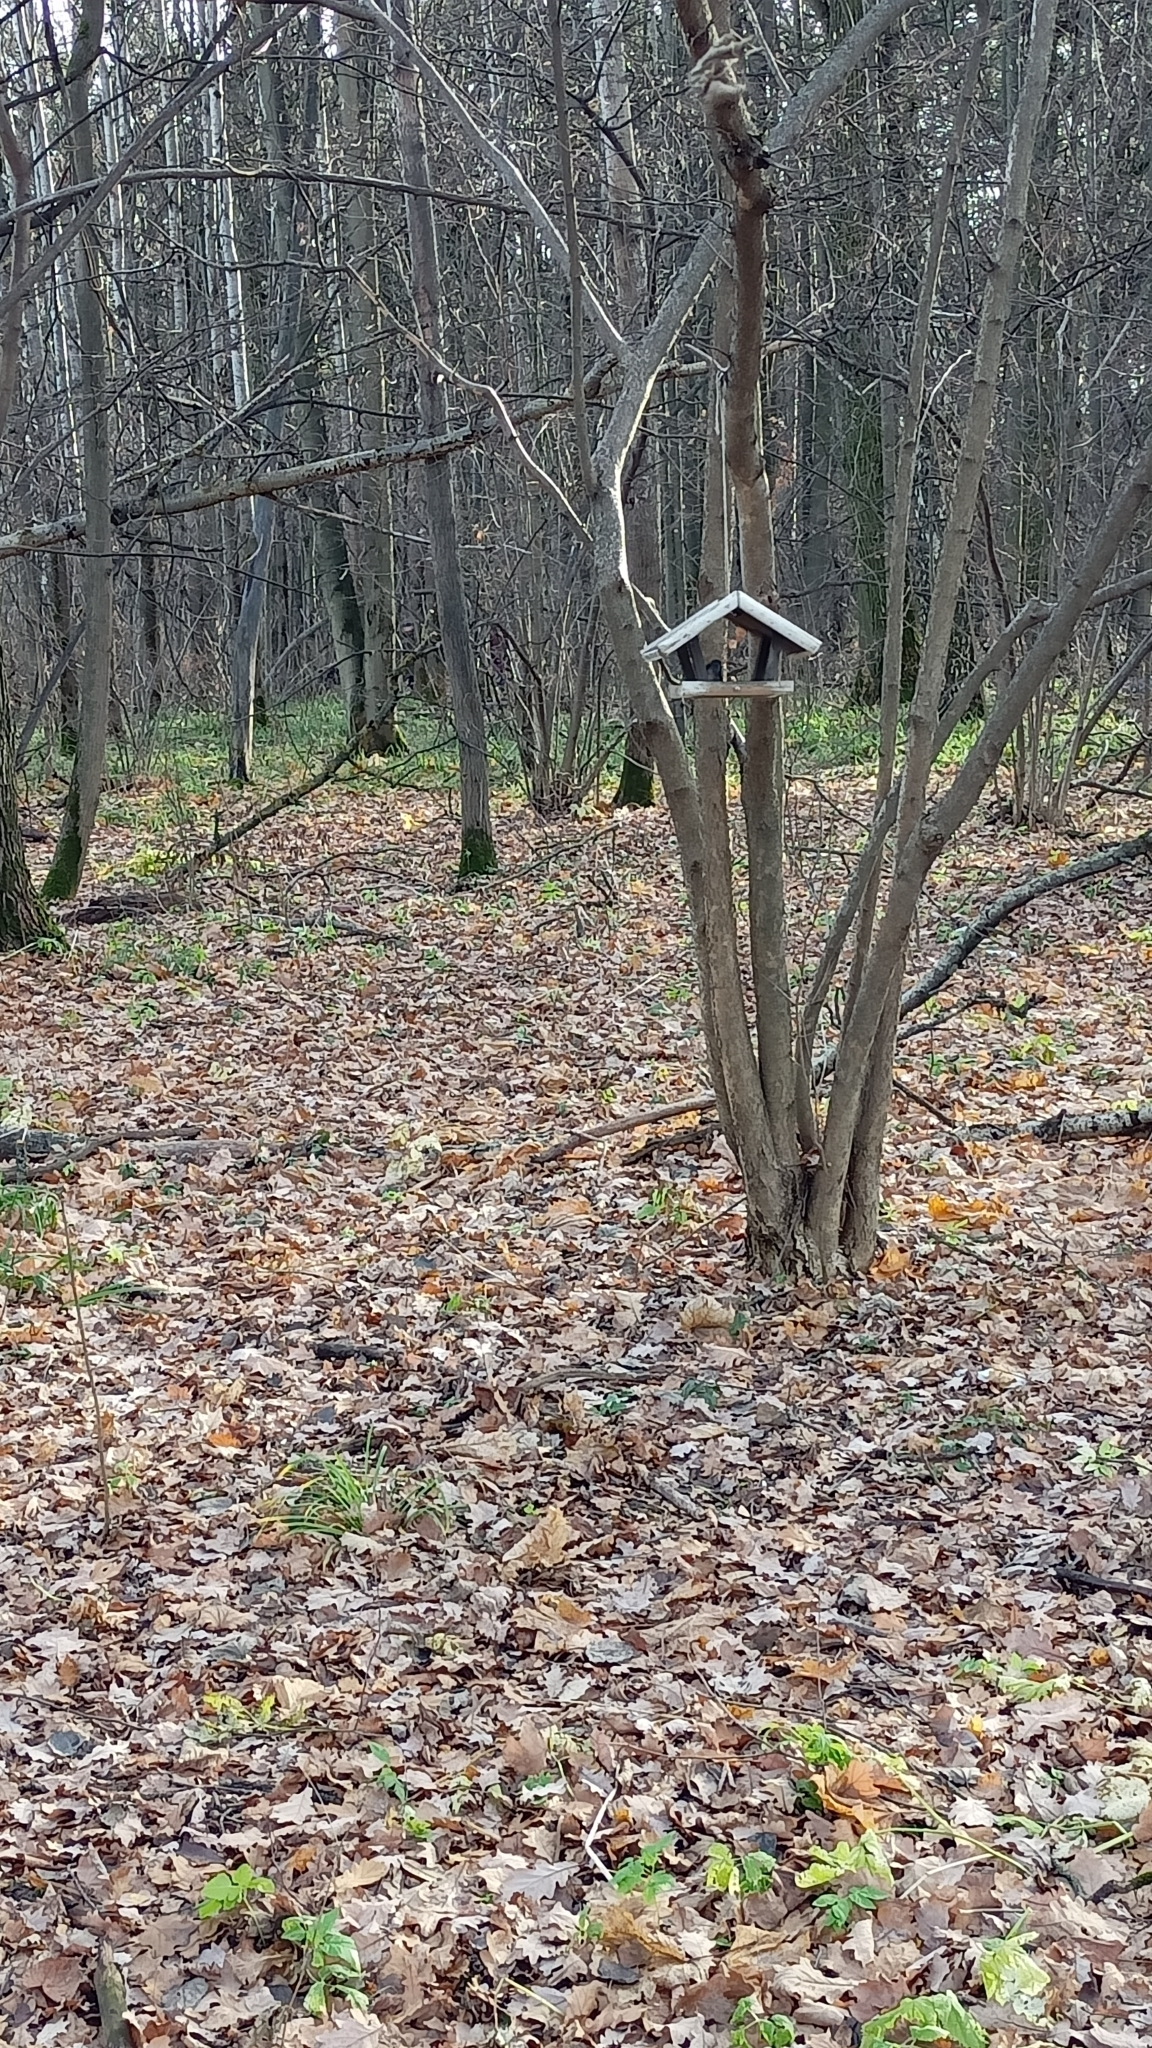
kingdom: Animalia
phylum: Chordata
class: Aves
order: Passeriformes
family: Sittidae
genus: Sitta
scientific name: Sitta europaea
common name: Eurasian nuthatch
